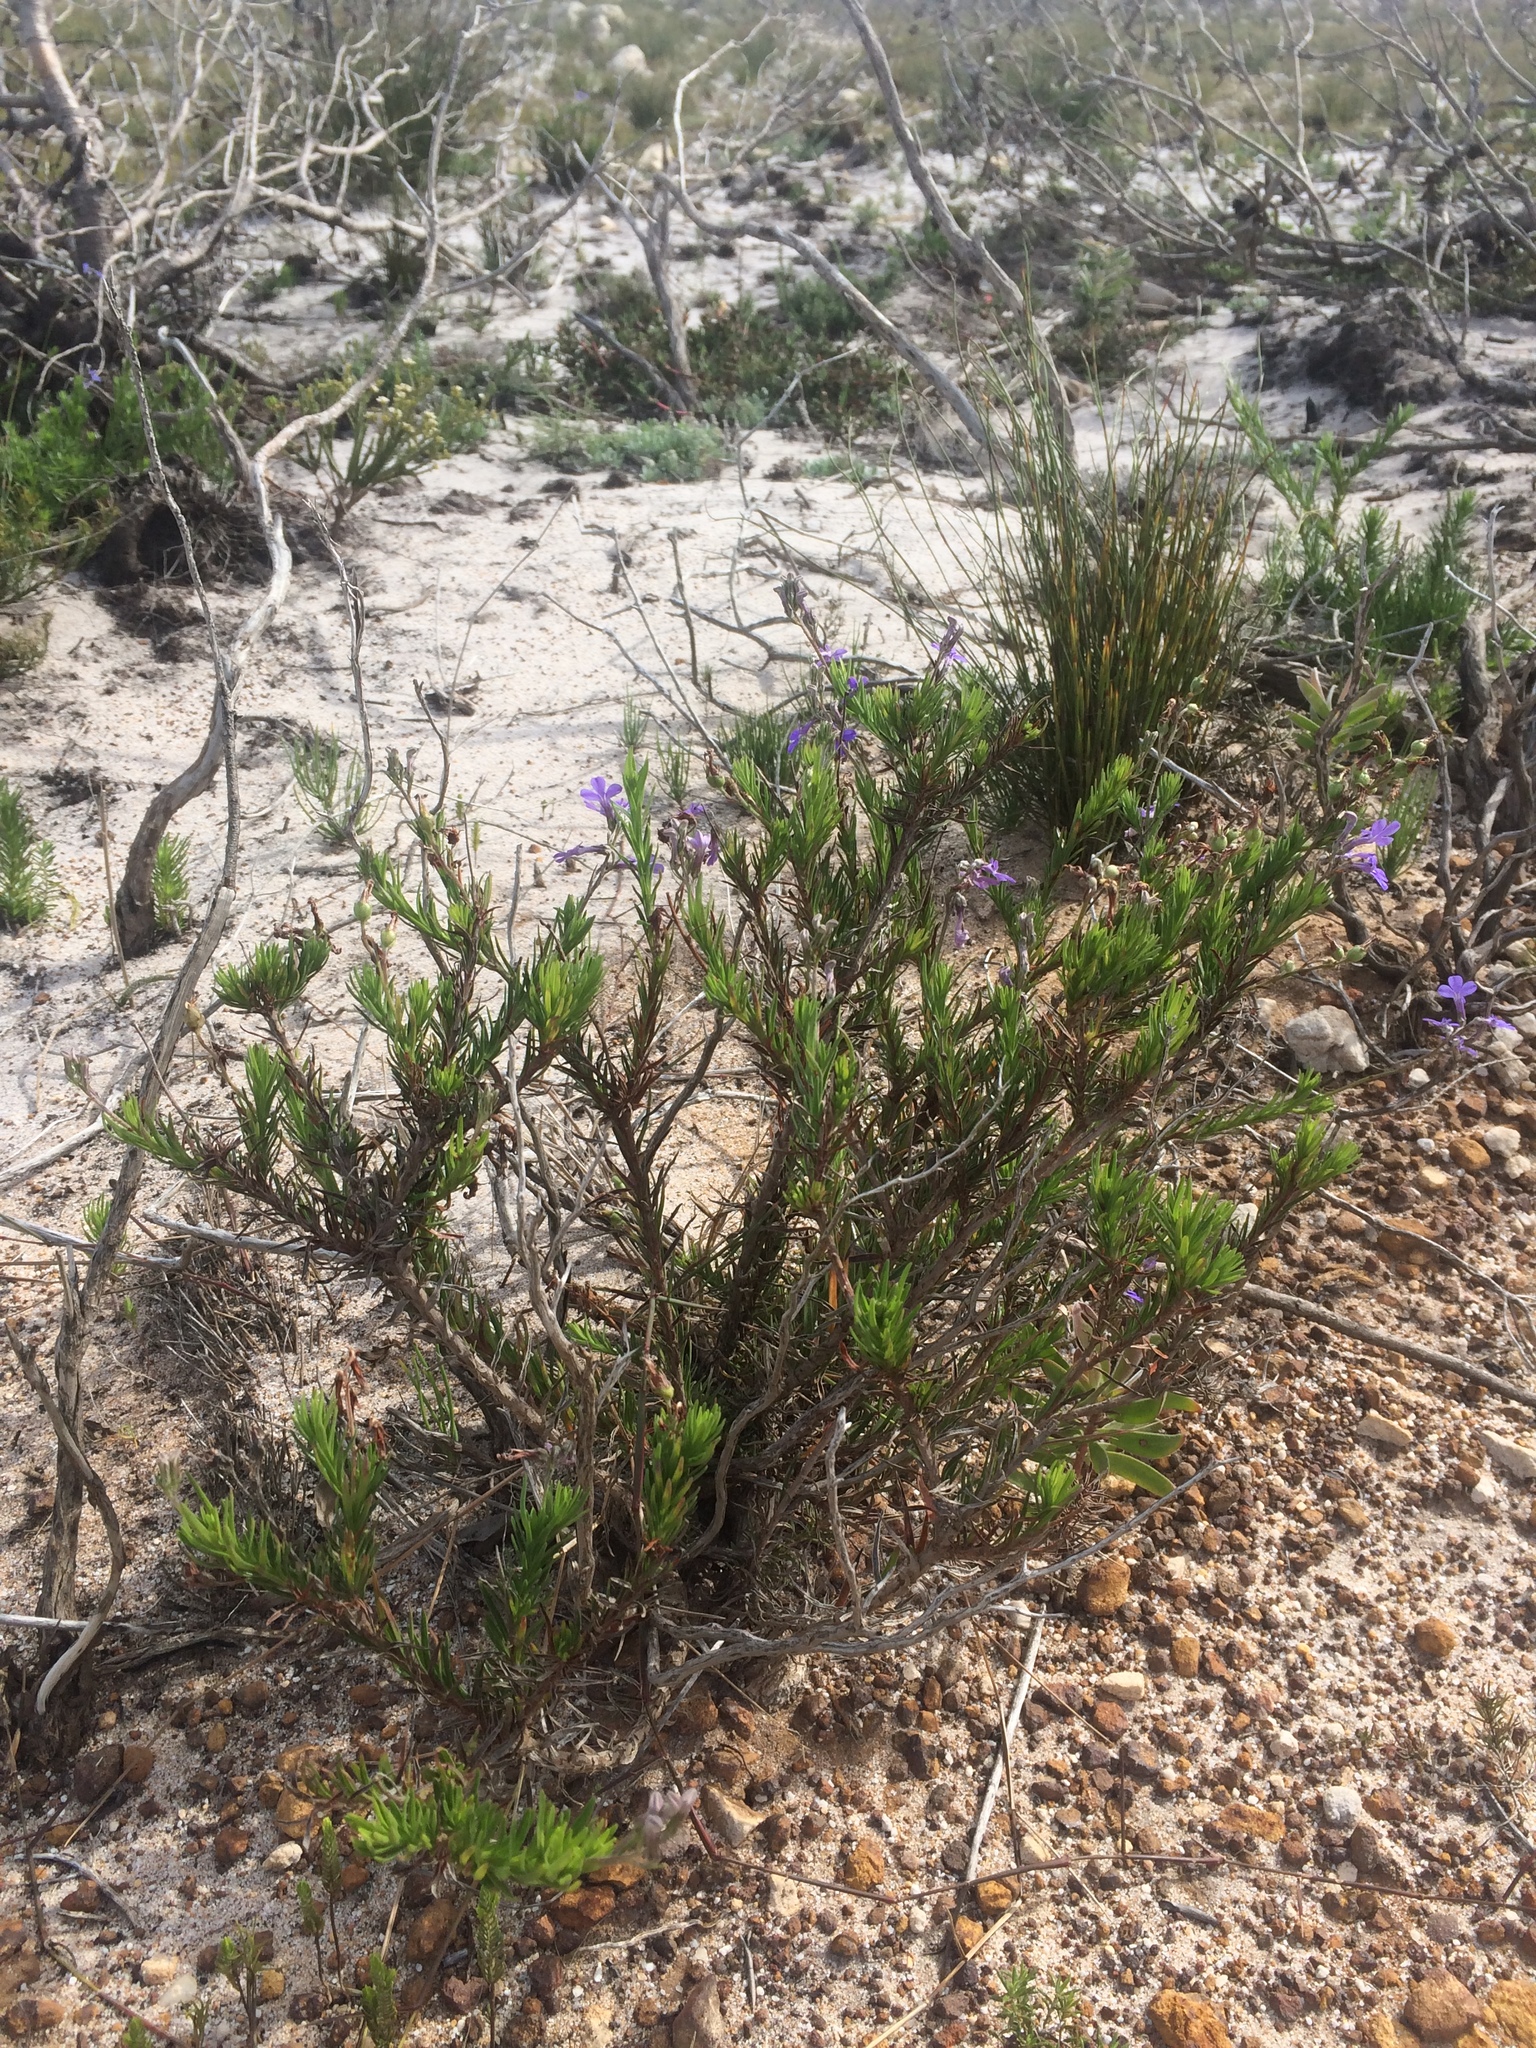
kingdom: Plantae
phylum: Tracheophyta
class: Magnoliopsida
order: Asterales
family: Campanulaceae
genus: Lobelia
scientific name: Lobelia pinifolia
